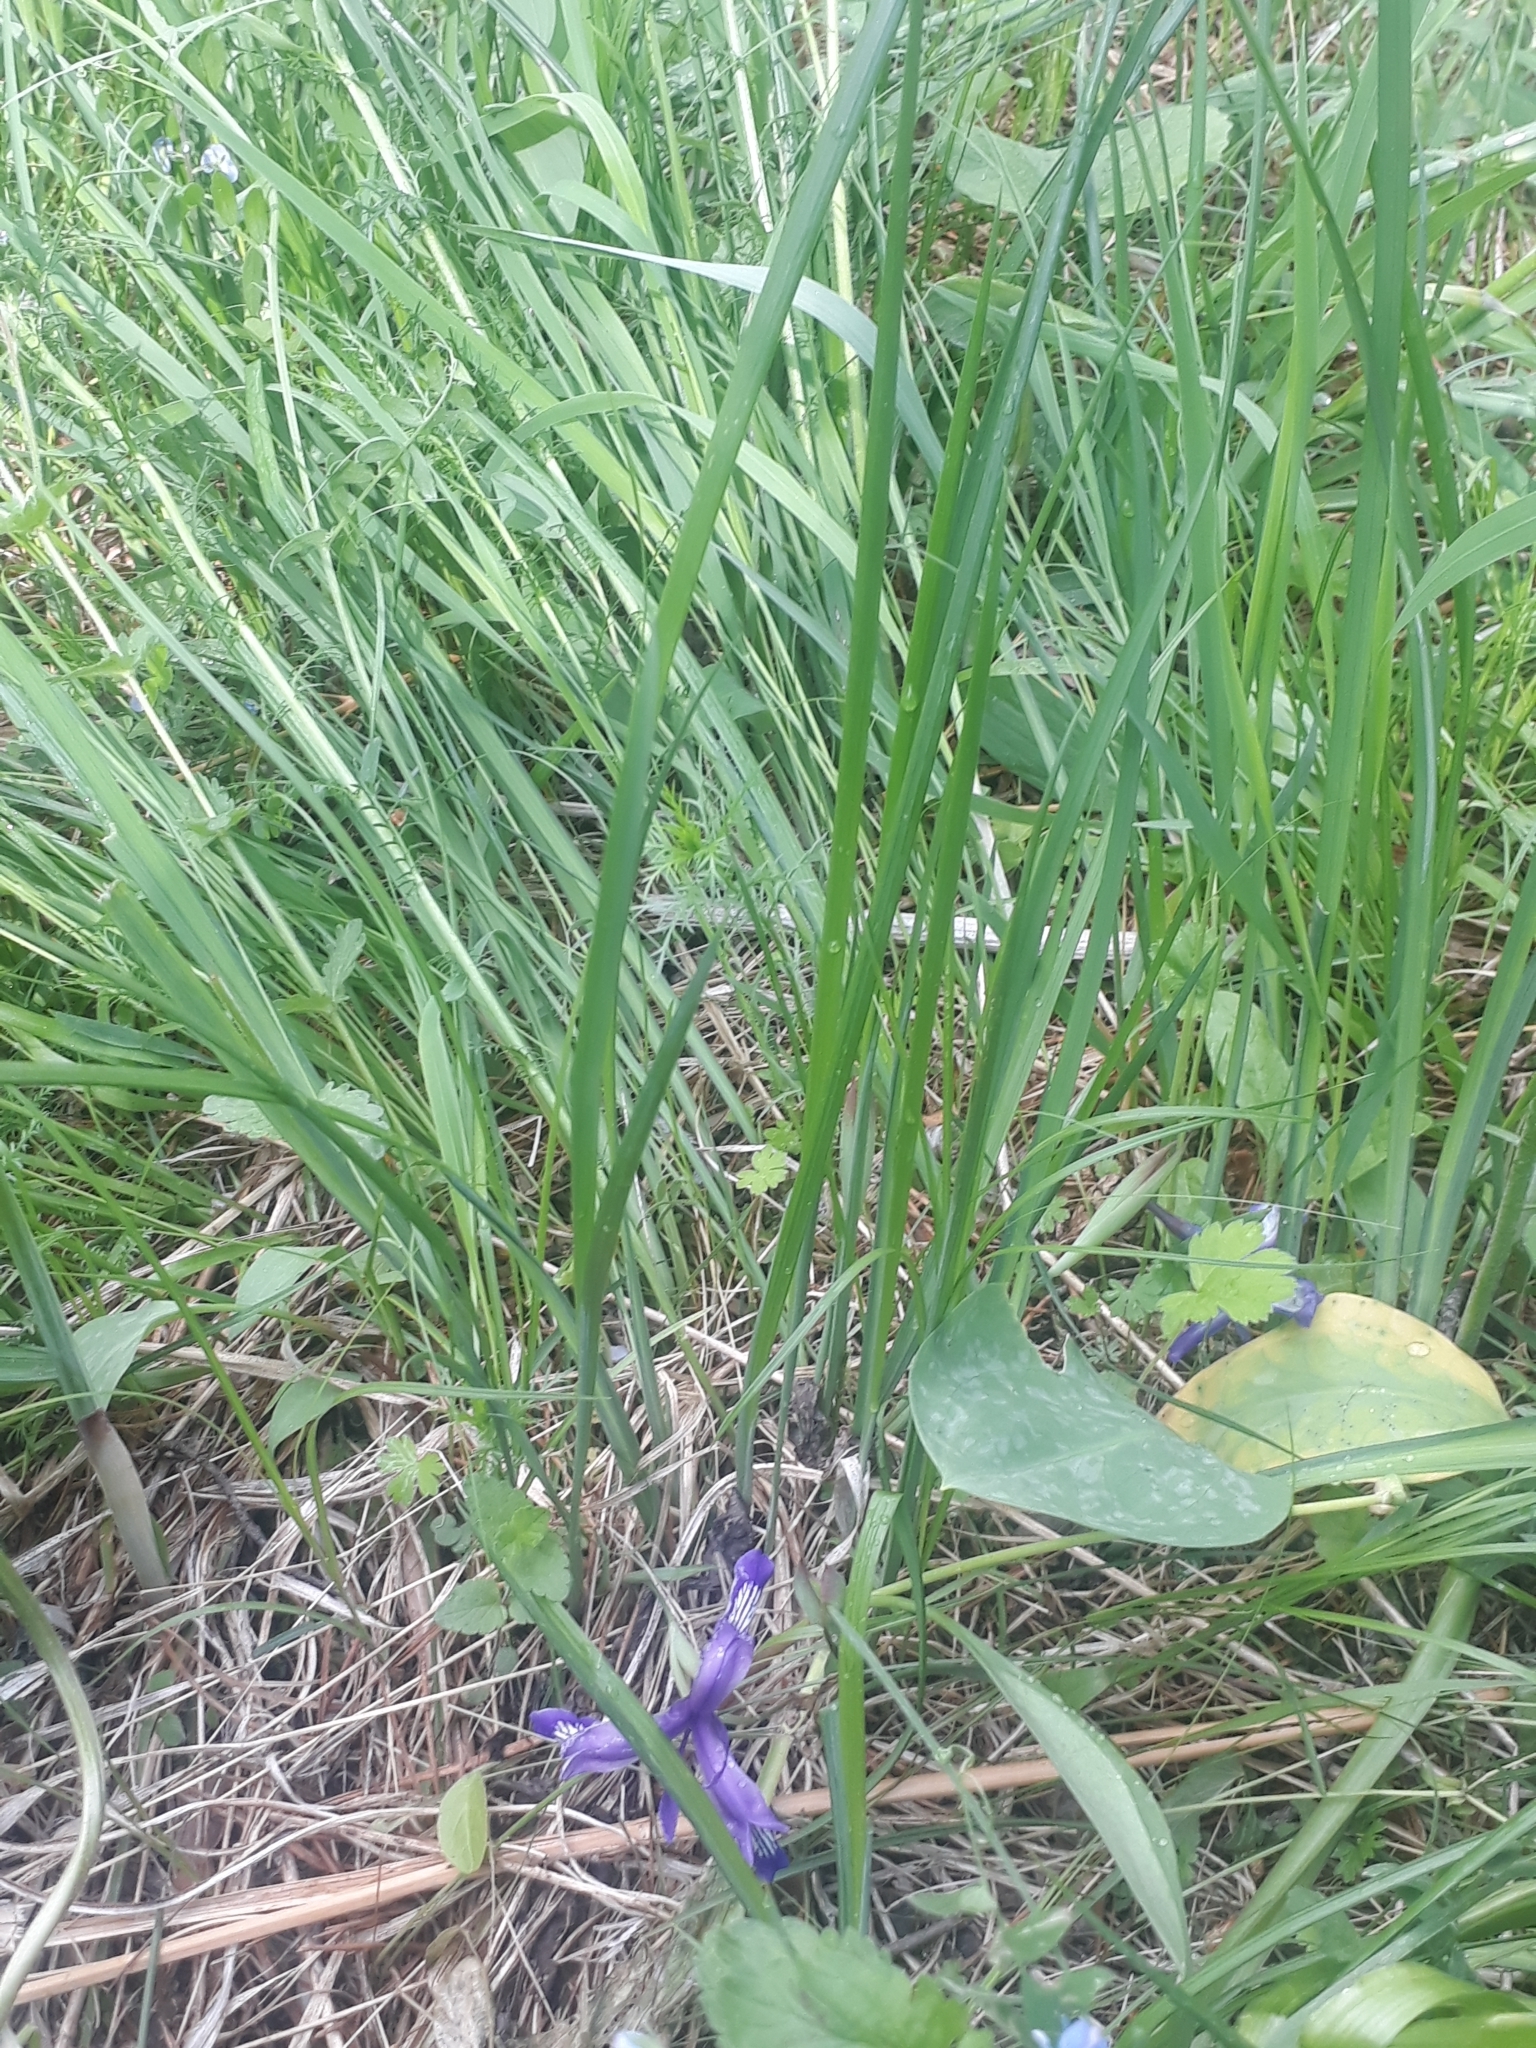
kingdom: Plantae
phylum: Tracheophyta
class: Liliopsida
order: Asparagales
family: Iridaceae
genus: Iris
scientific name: Iris ruthenica
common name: Purple-bract iris
